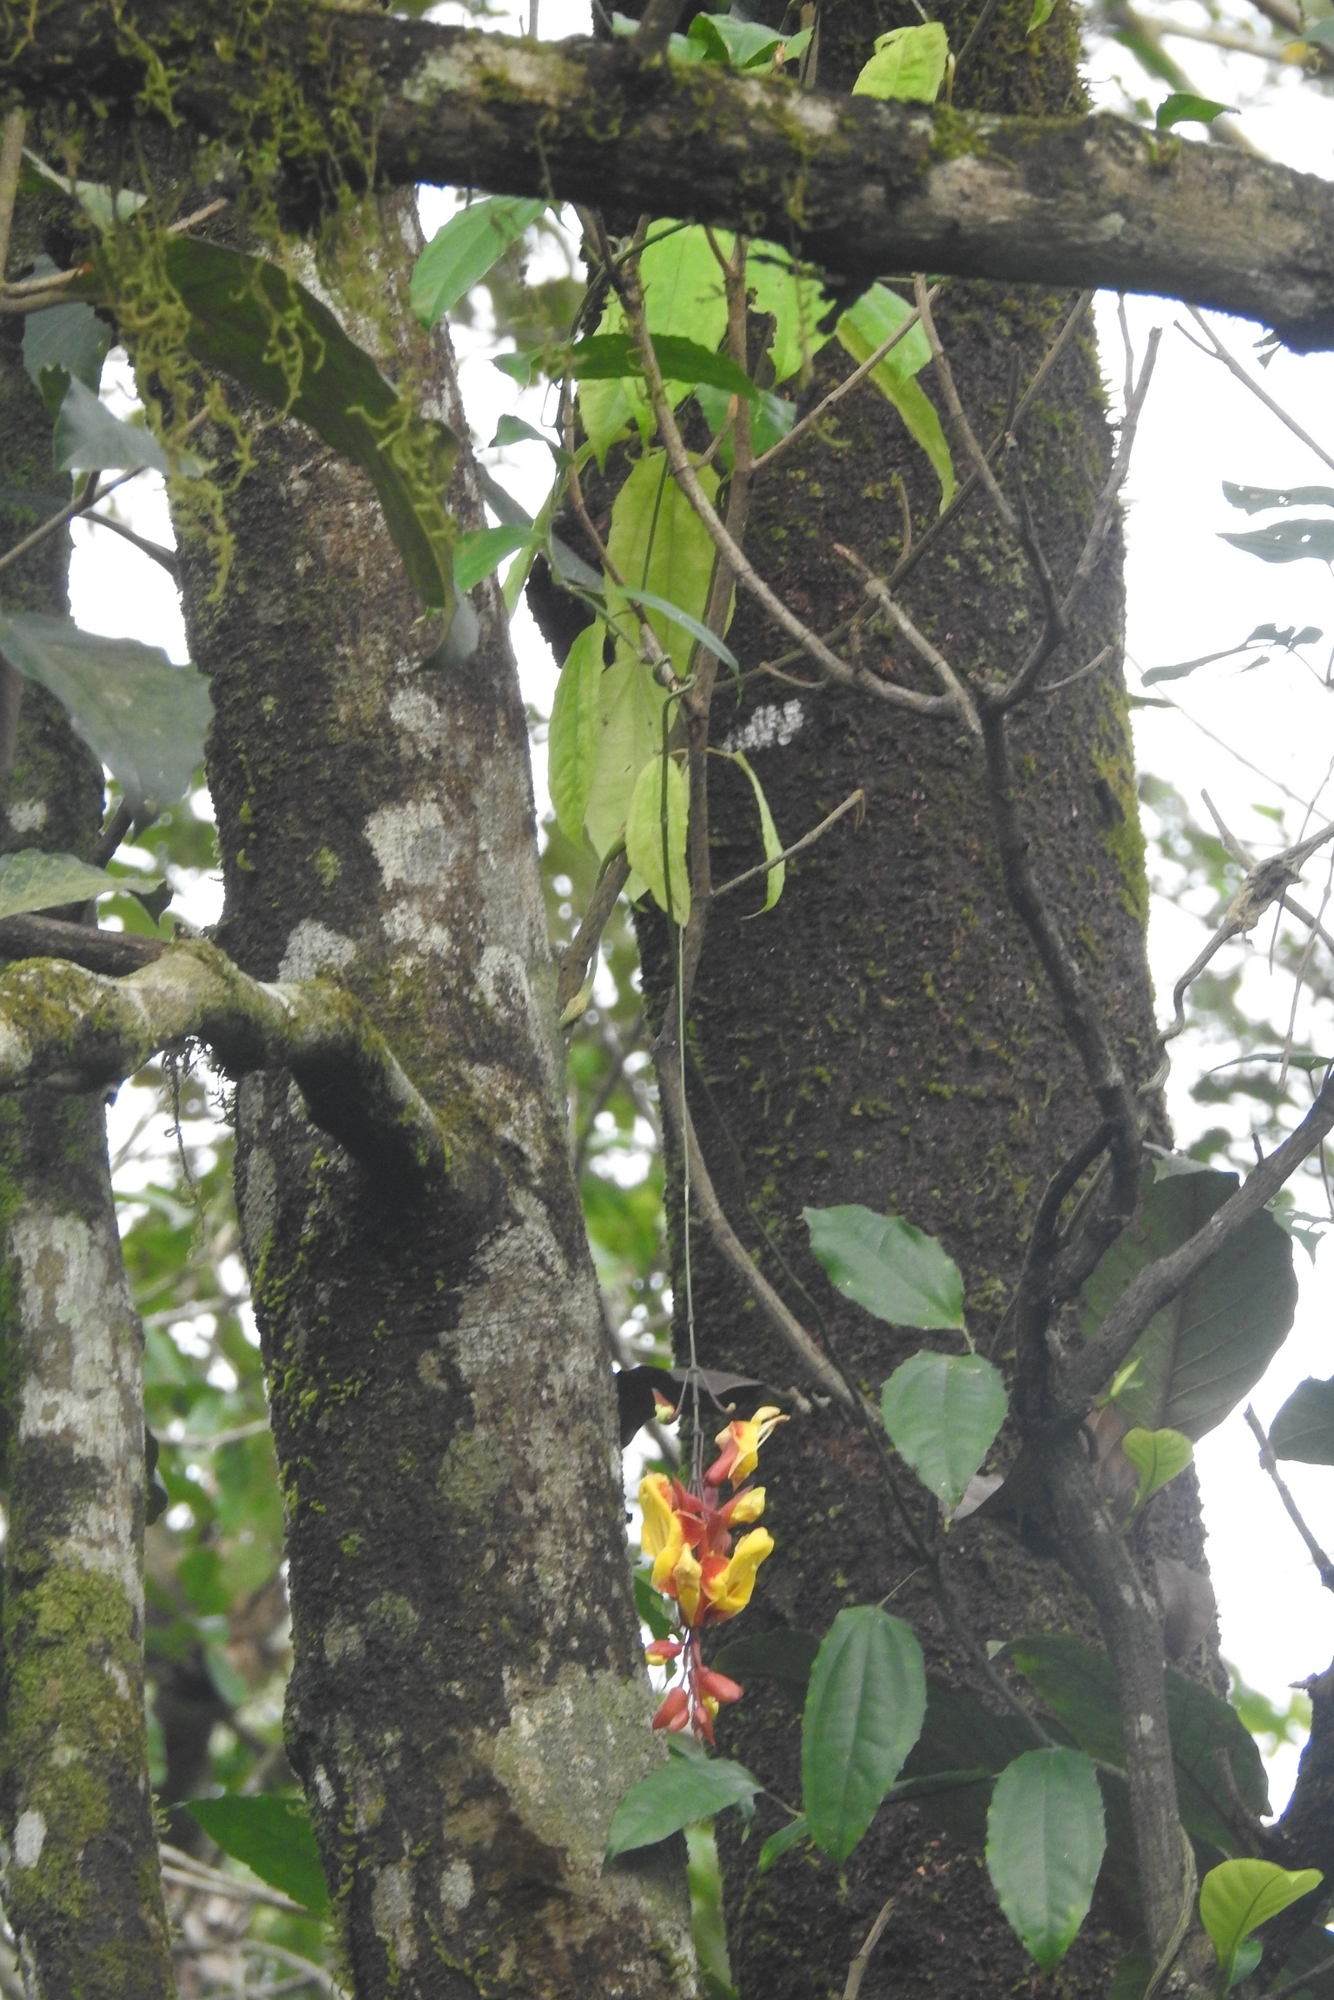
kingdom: Plantae
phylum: Tracheophyta
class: Magnoliopsida
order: Lamiales
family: Acanthaceae
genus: Thunbergia
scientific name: Thunbergia mysorensis
